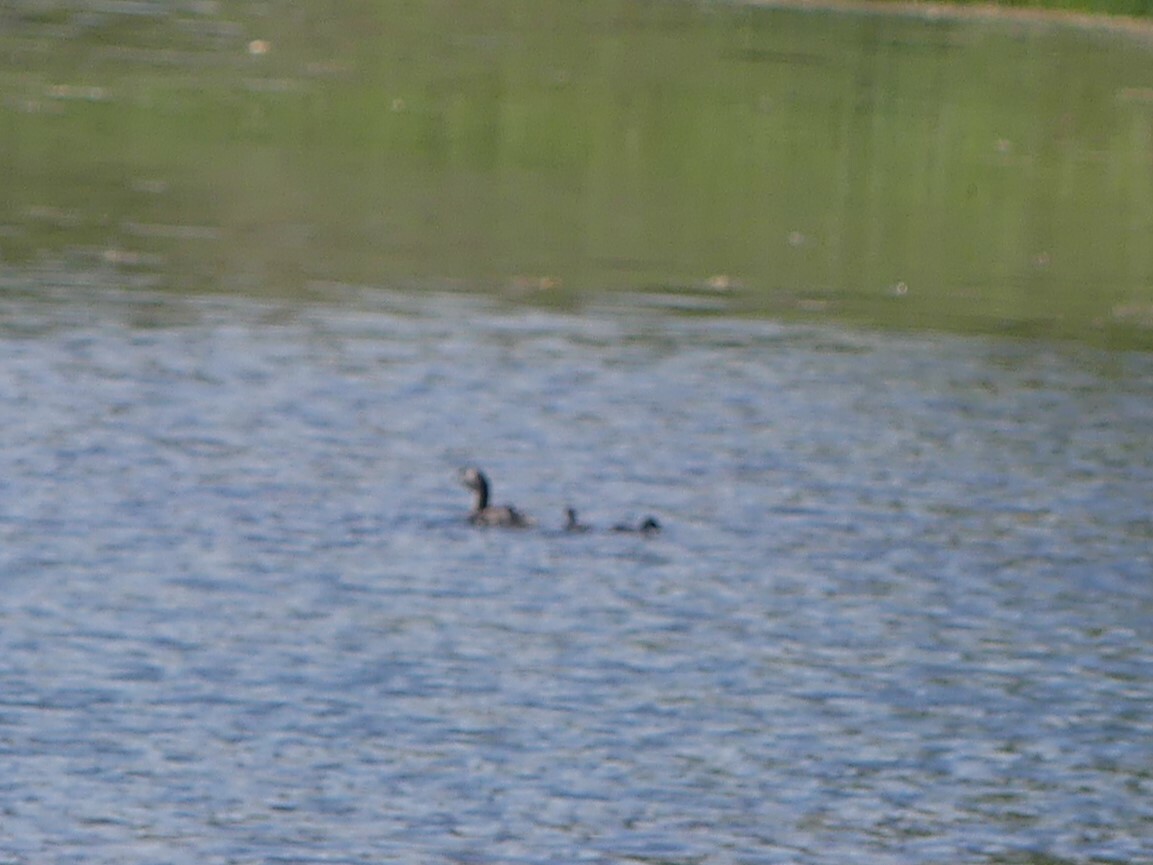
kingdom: Animalia
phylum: Chordata
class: Aves
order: Podicipediformes
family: Podicipedidae
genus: Podilymbus
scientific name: Podilymbus podiceps
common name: Pied-billed grebe
